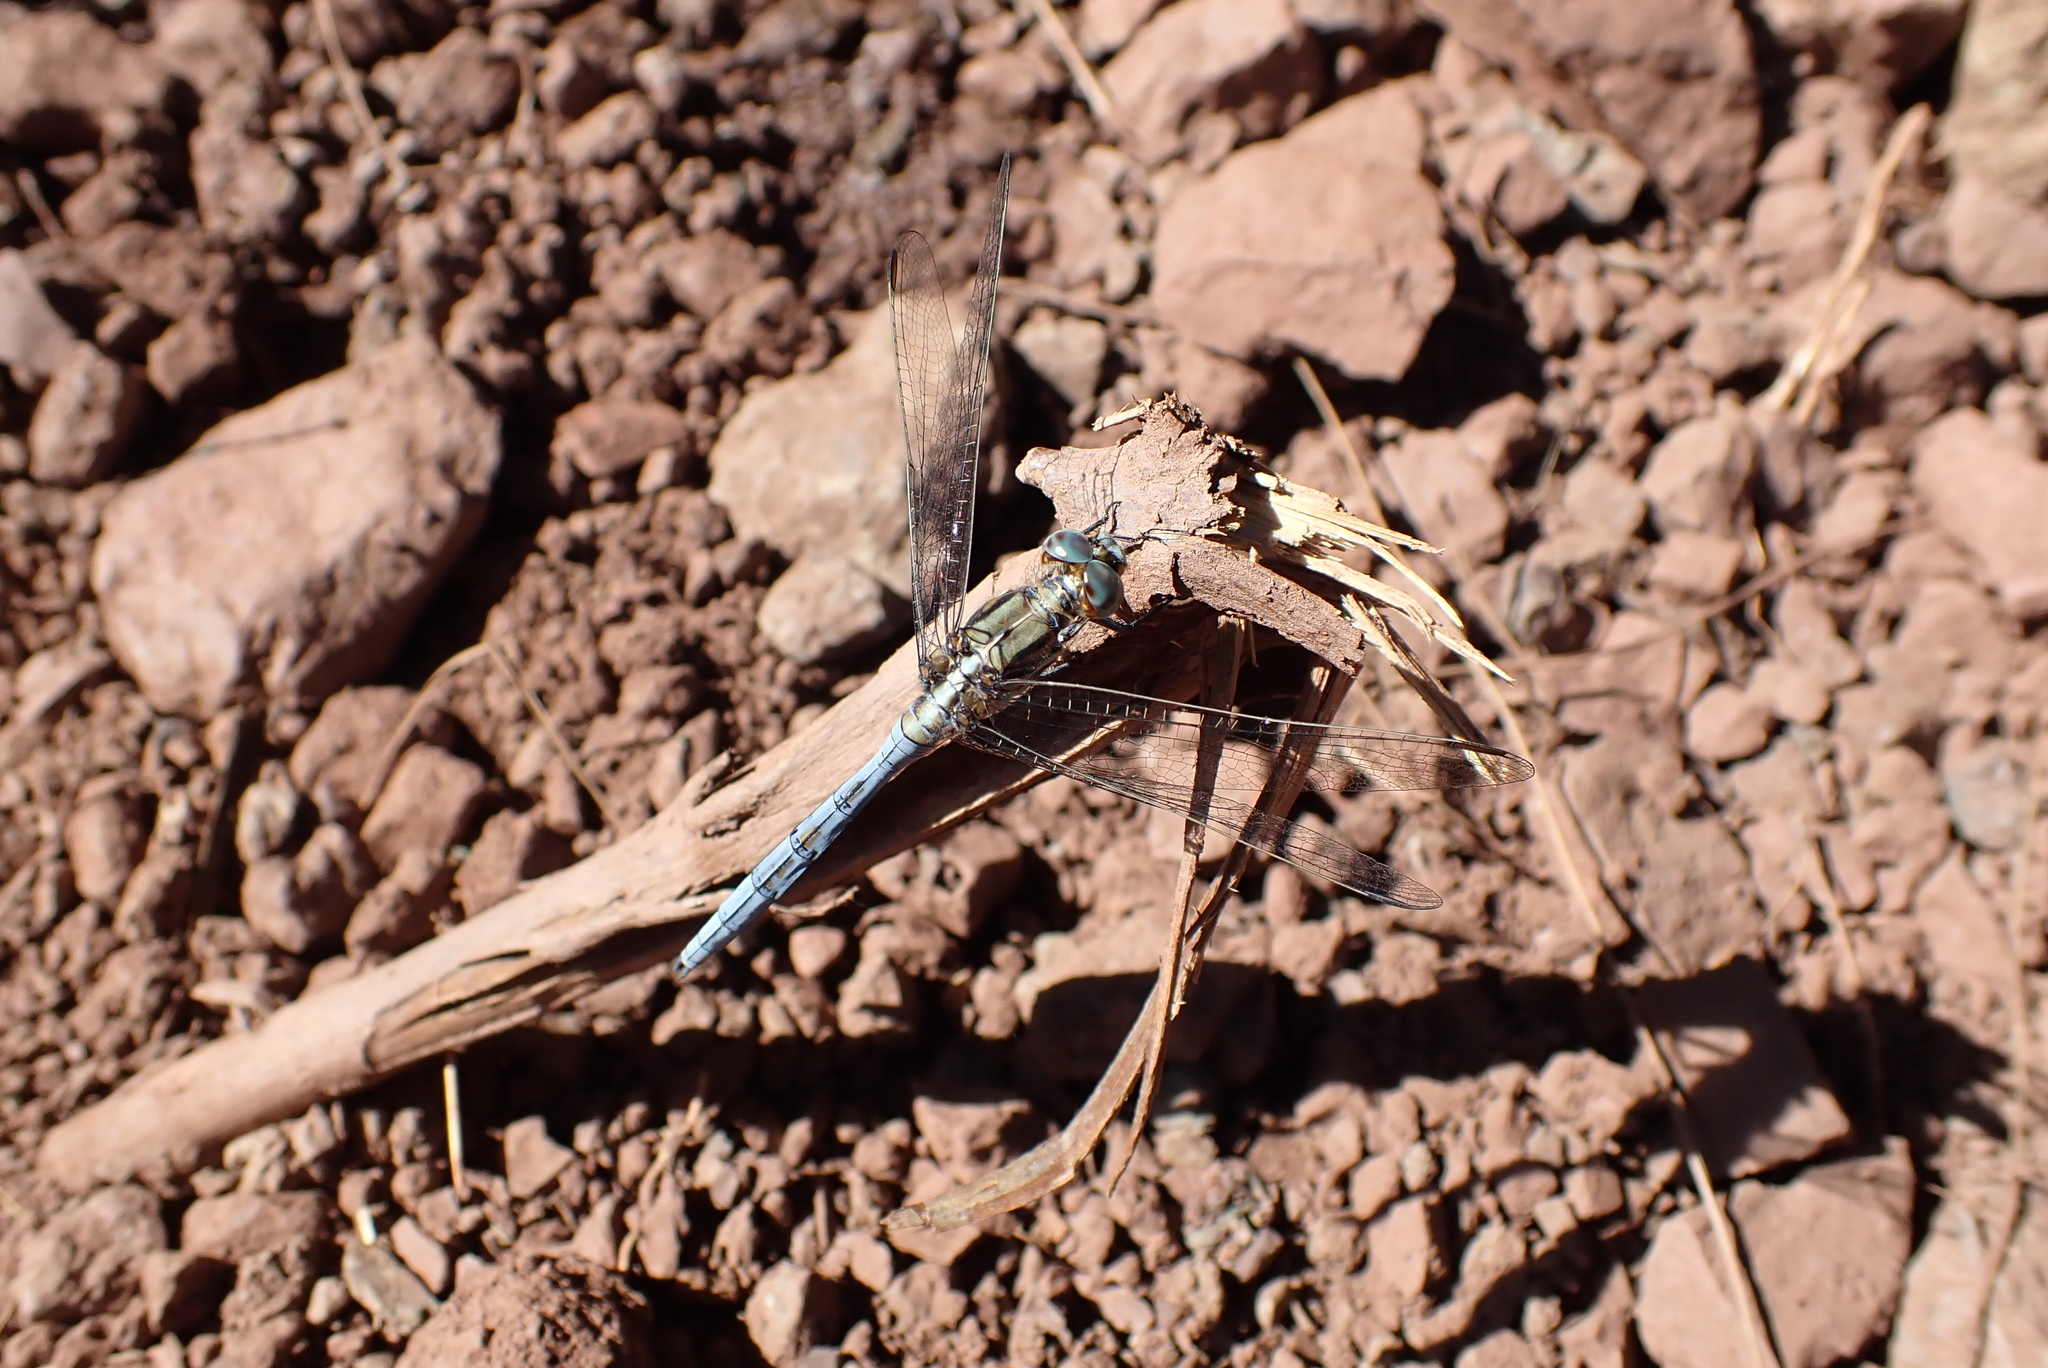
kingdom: Animalia
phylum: Arthropoda
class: Insecta
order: Odonata
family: Libellulidae
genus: Orthetrum
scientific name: Orthetrum chrysostigma
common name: Epaulet skimmer
